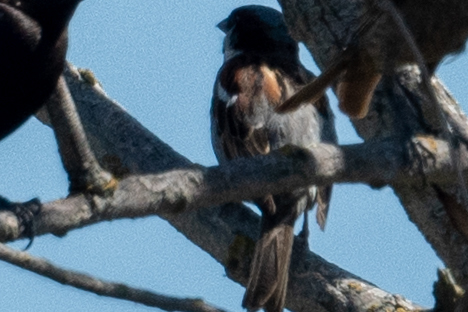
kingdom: Animalia
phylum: Chordata
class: Aves
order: Passeriformes
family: Passeridae
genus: Passer
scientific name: Passer domesticus
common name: House sparrow
